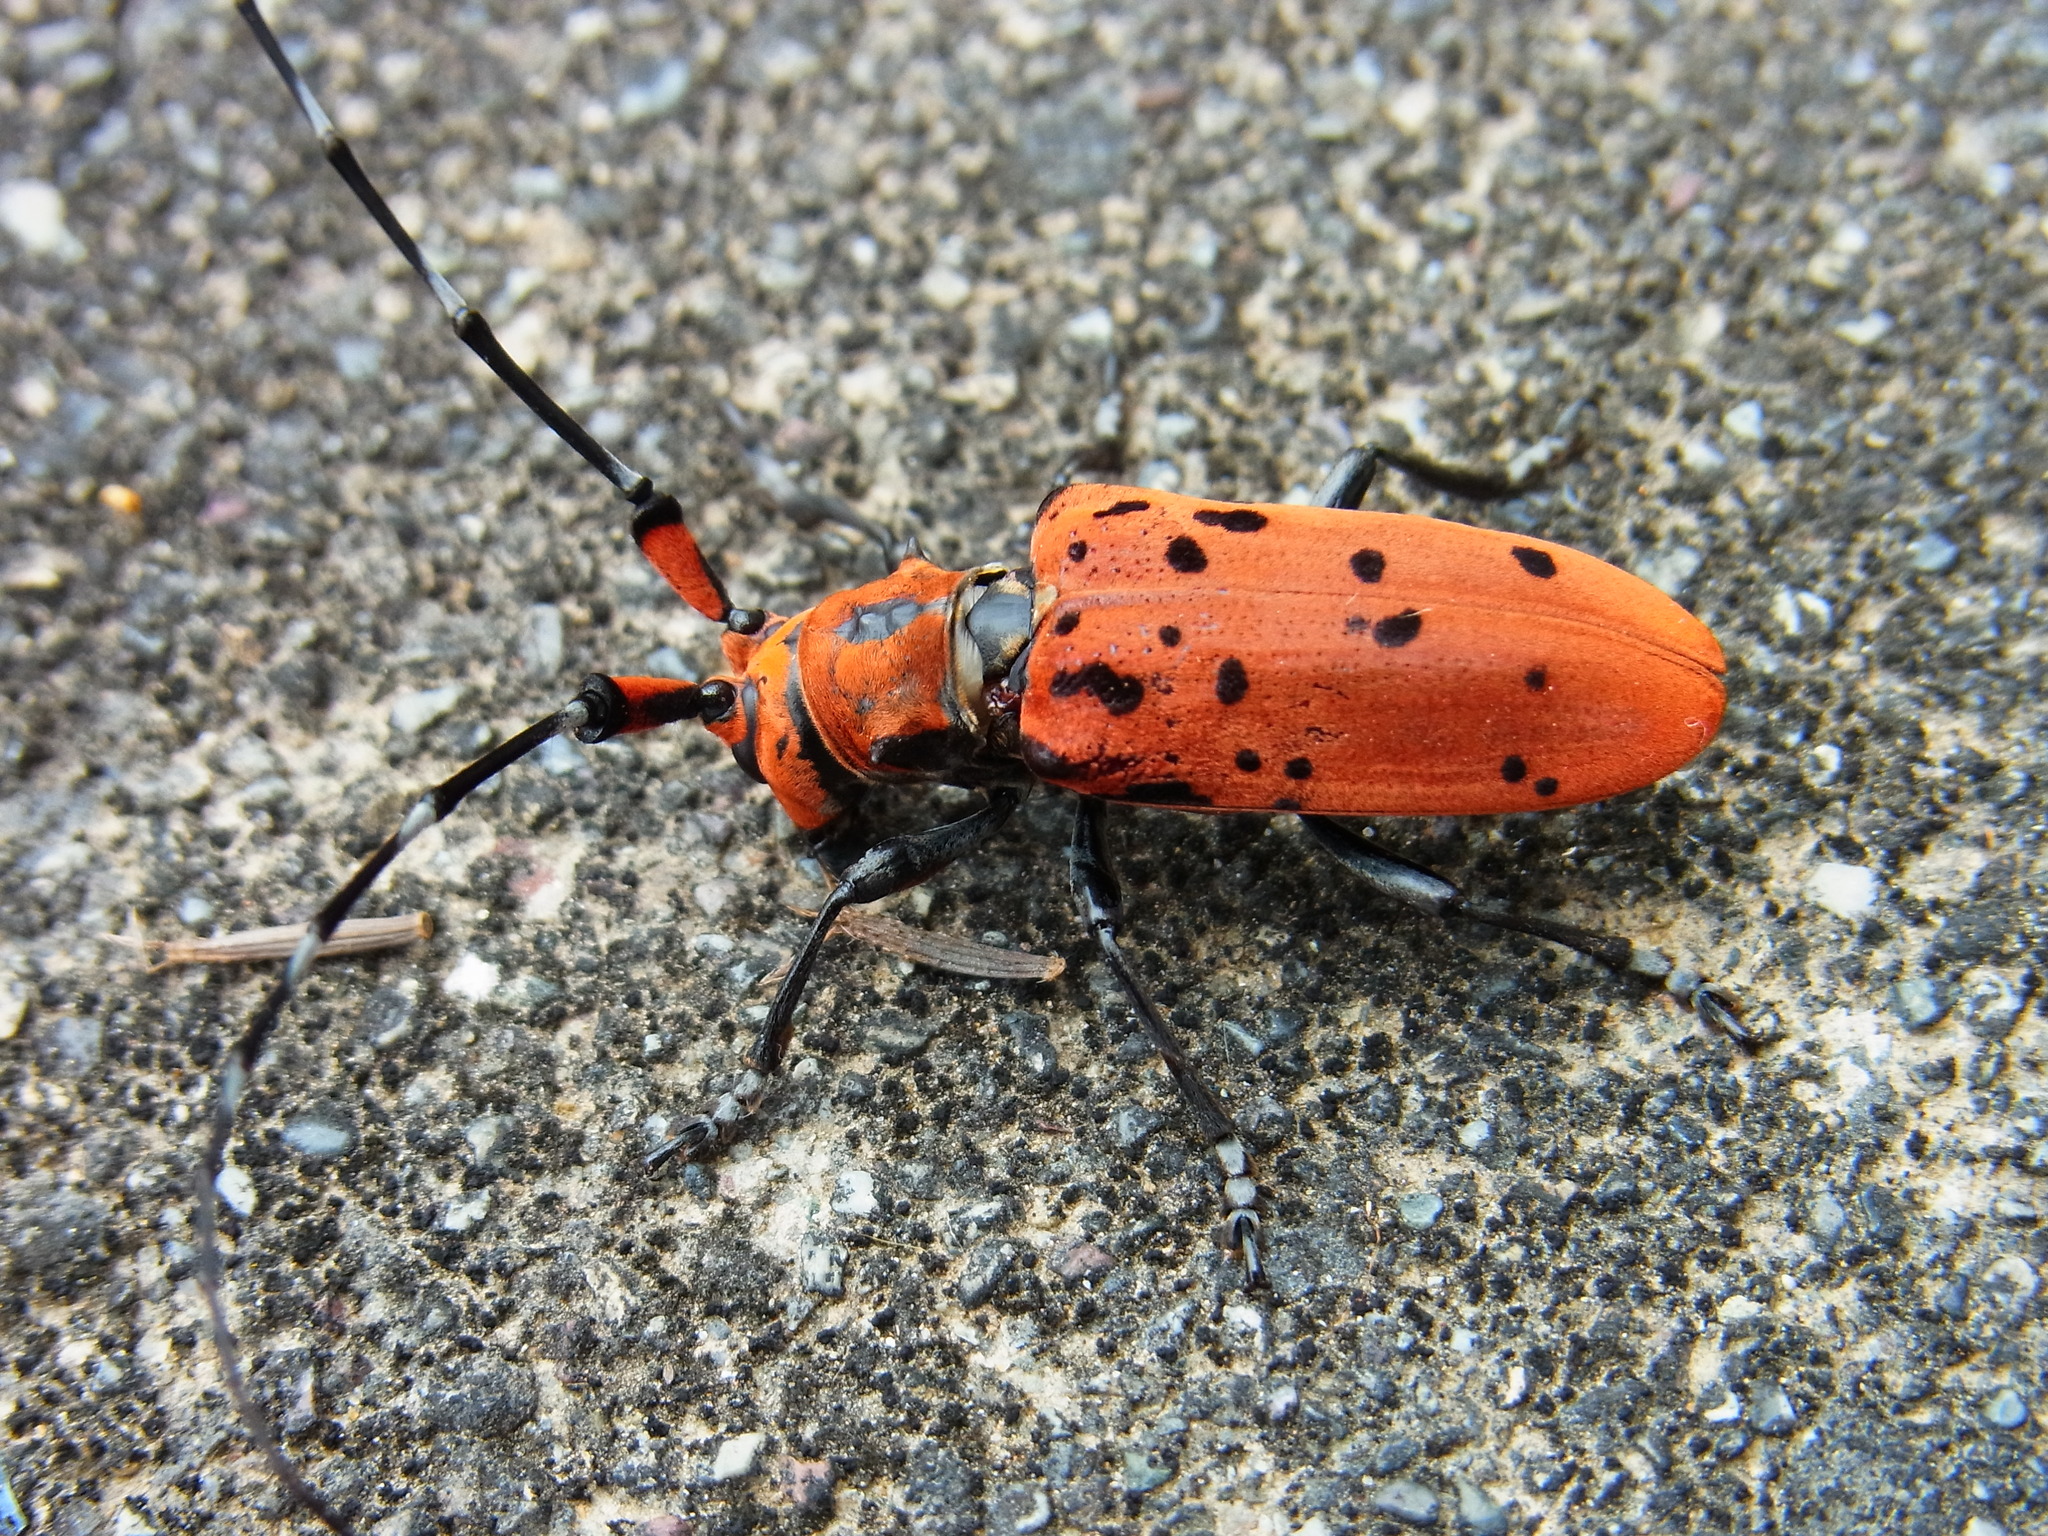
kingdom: Animalia
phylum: Arthropoda
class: Insecta
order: Coleoptera
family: Cerambycidae
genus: Eupromus
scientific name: Eupromus ruber
